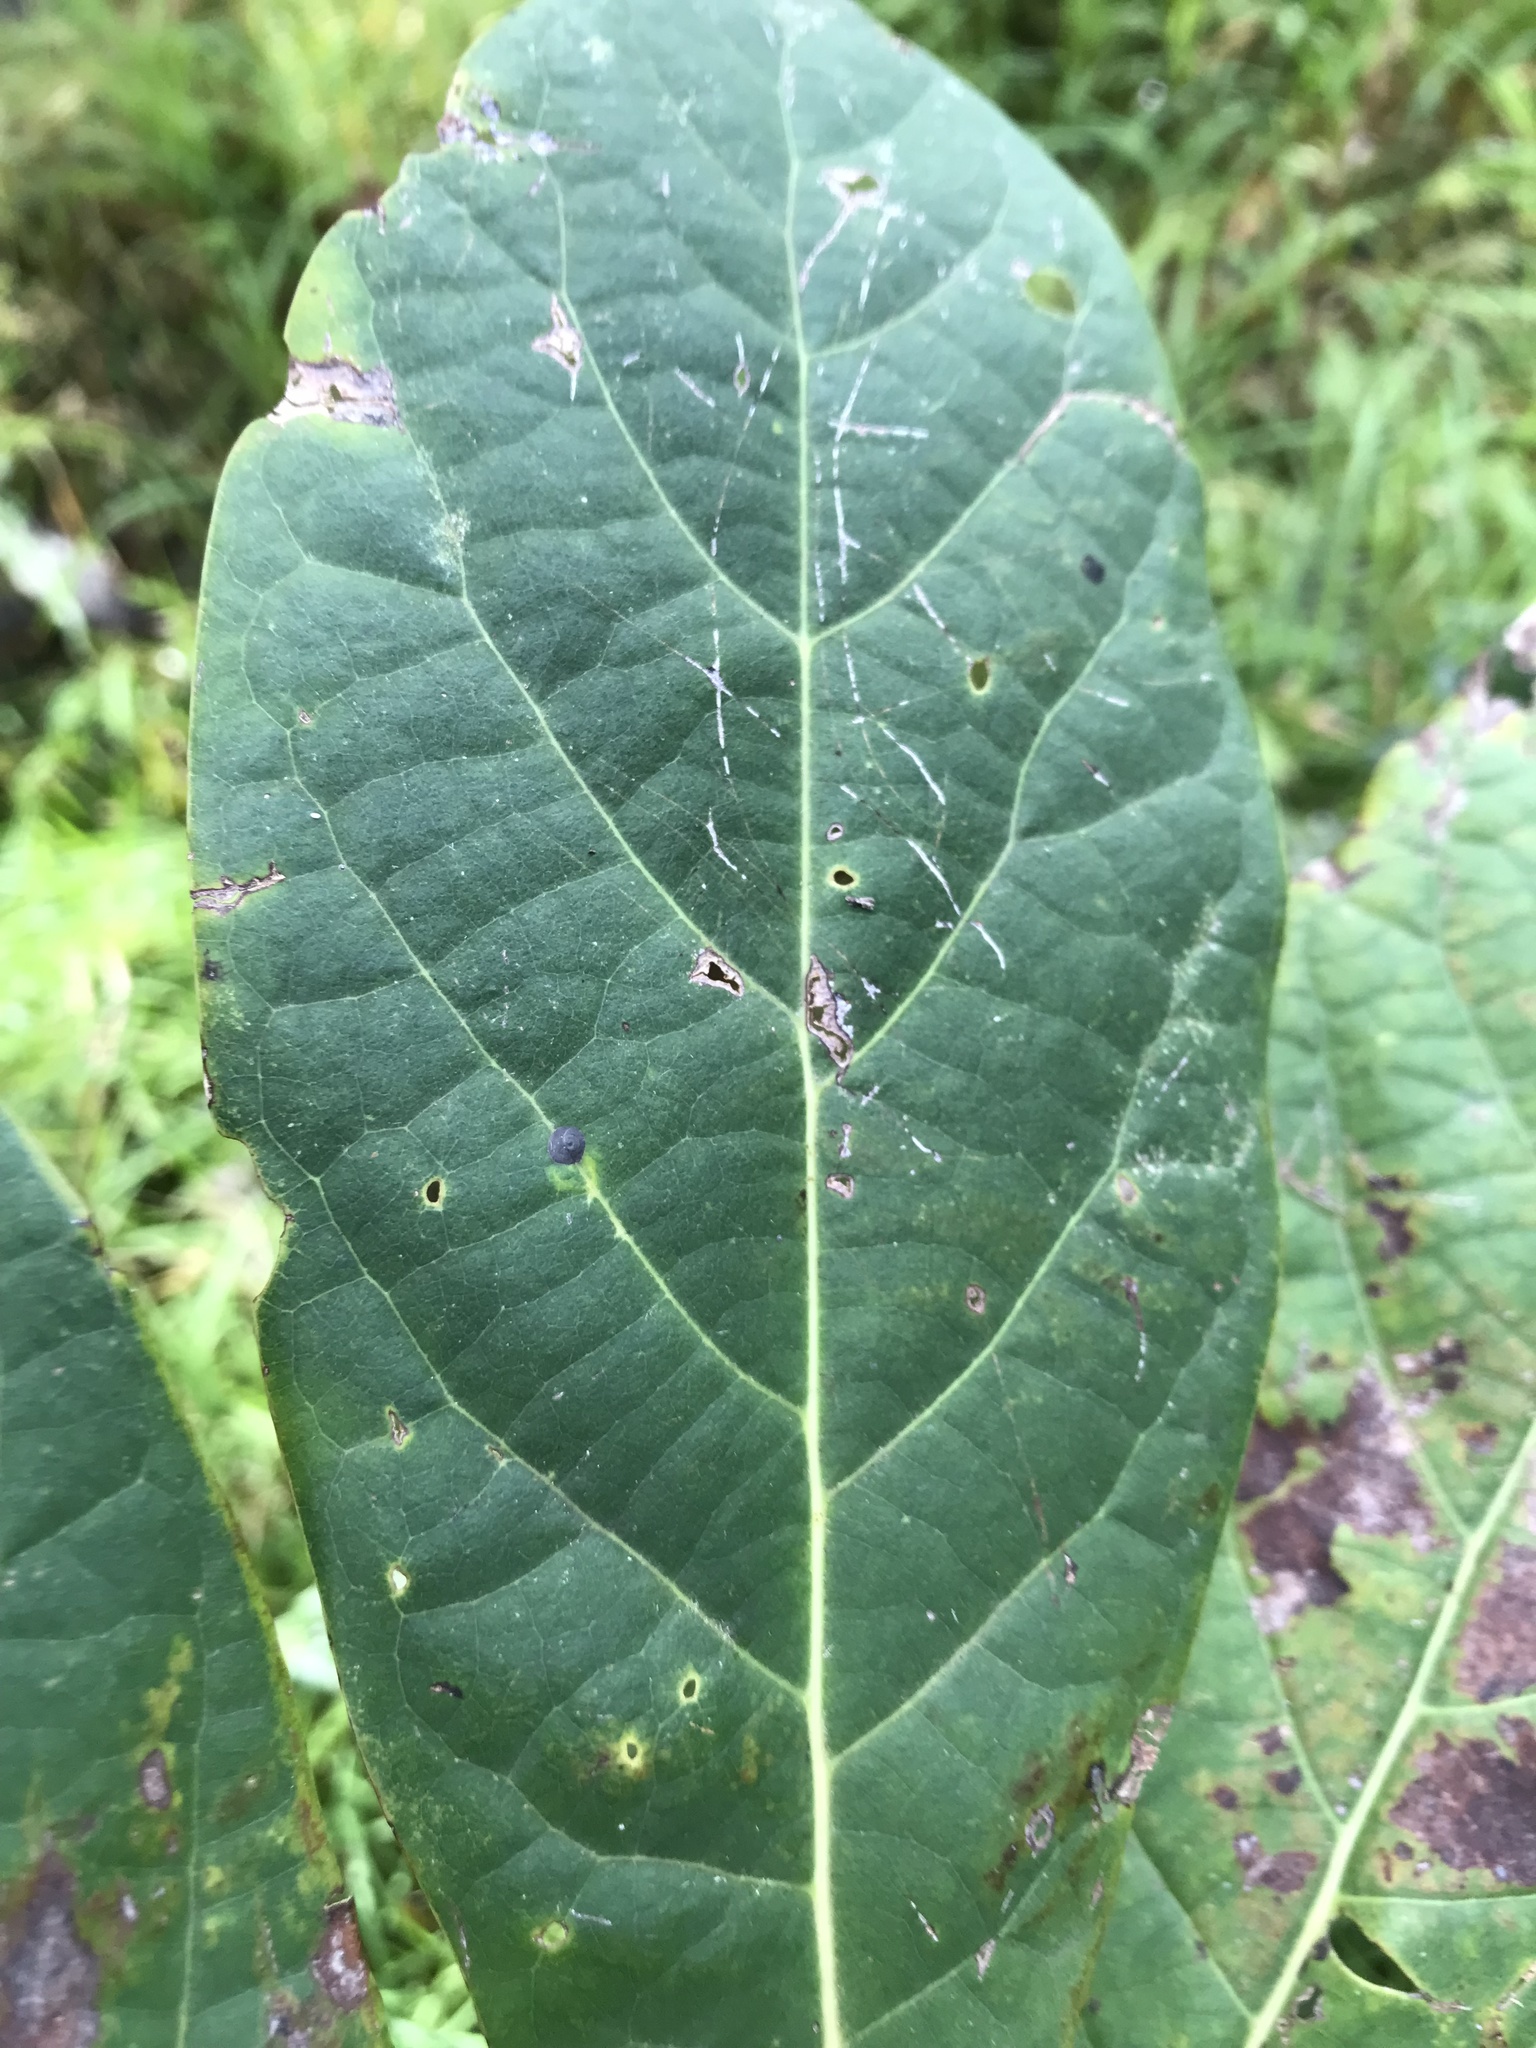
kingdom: Plantae
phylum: Tracheophyta
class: Magnoliopsida
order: Laurales
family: Lauraceae
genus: Persea
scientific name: Persea americana
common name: Avocado
